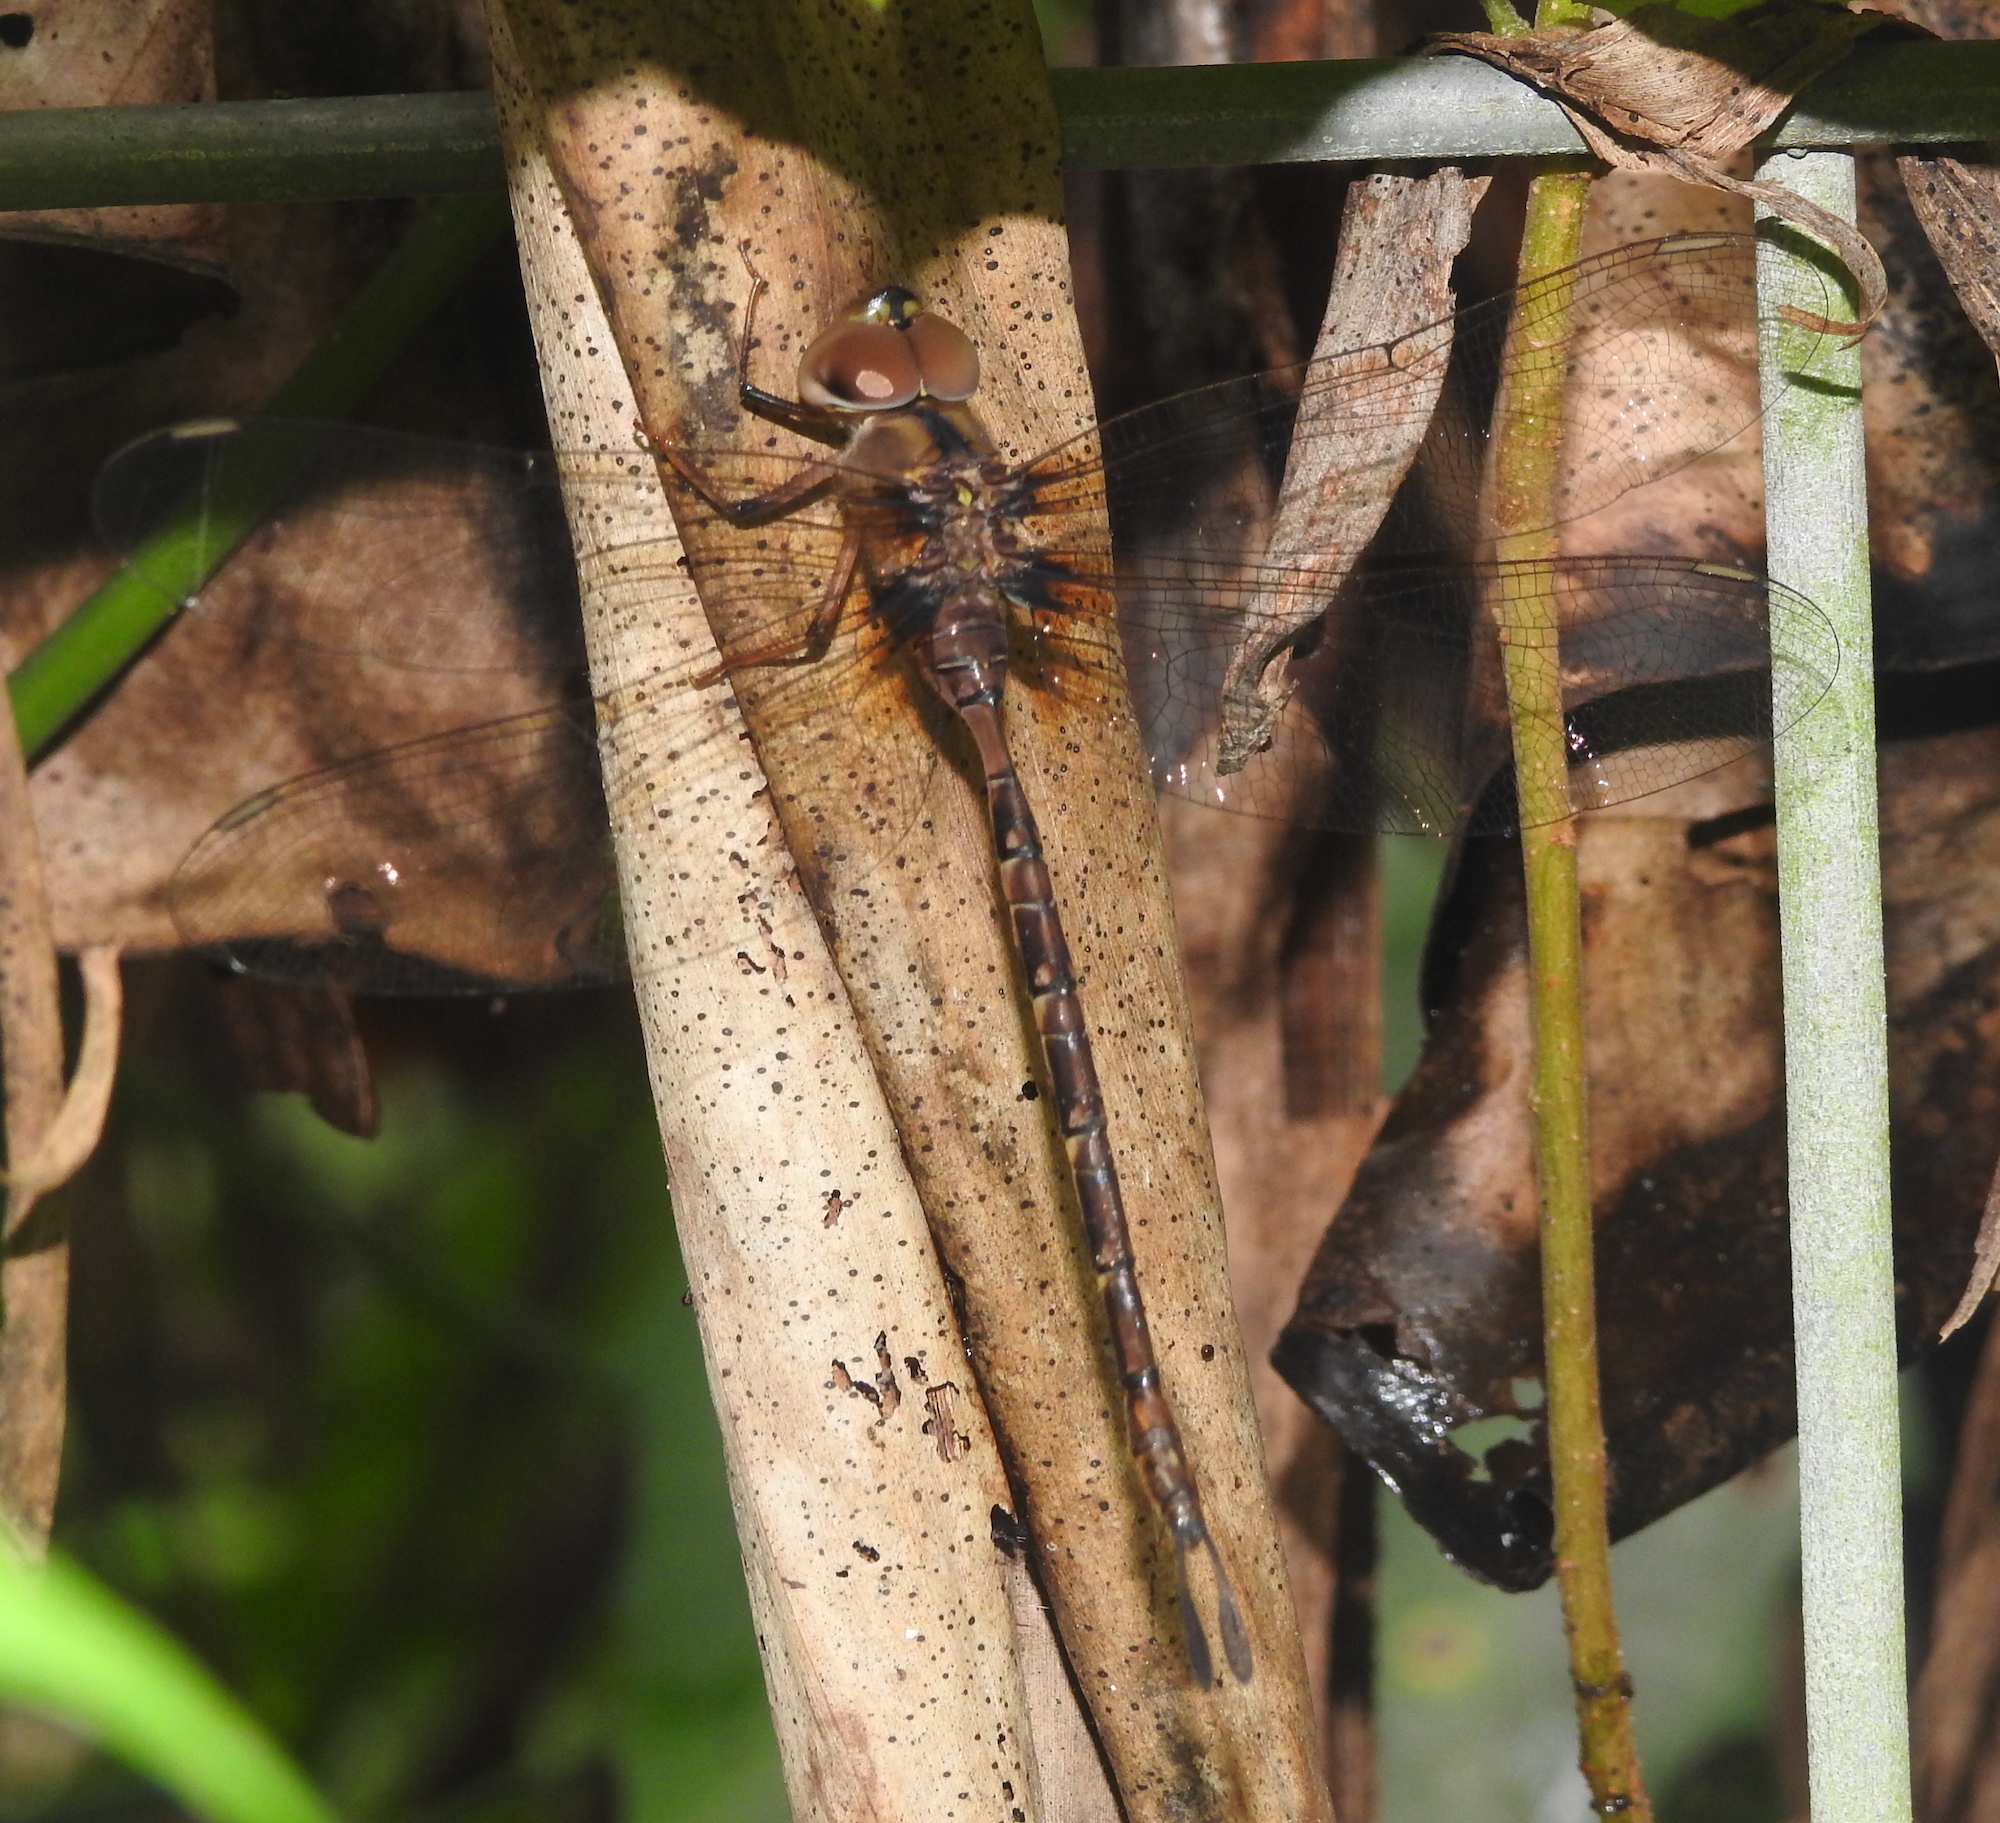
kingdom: Animalia
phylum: Arthropoda
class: Insecta
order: Odonata
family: Aeshnidae
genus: Gynacantha
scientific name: Gynacantha subinterrupta
